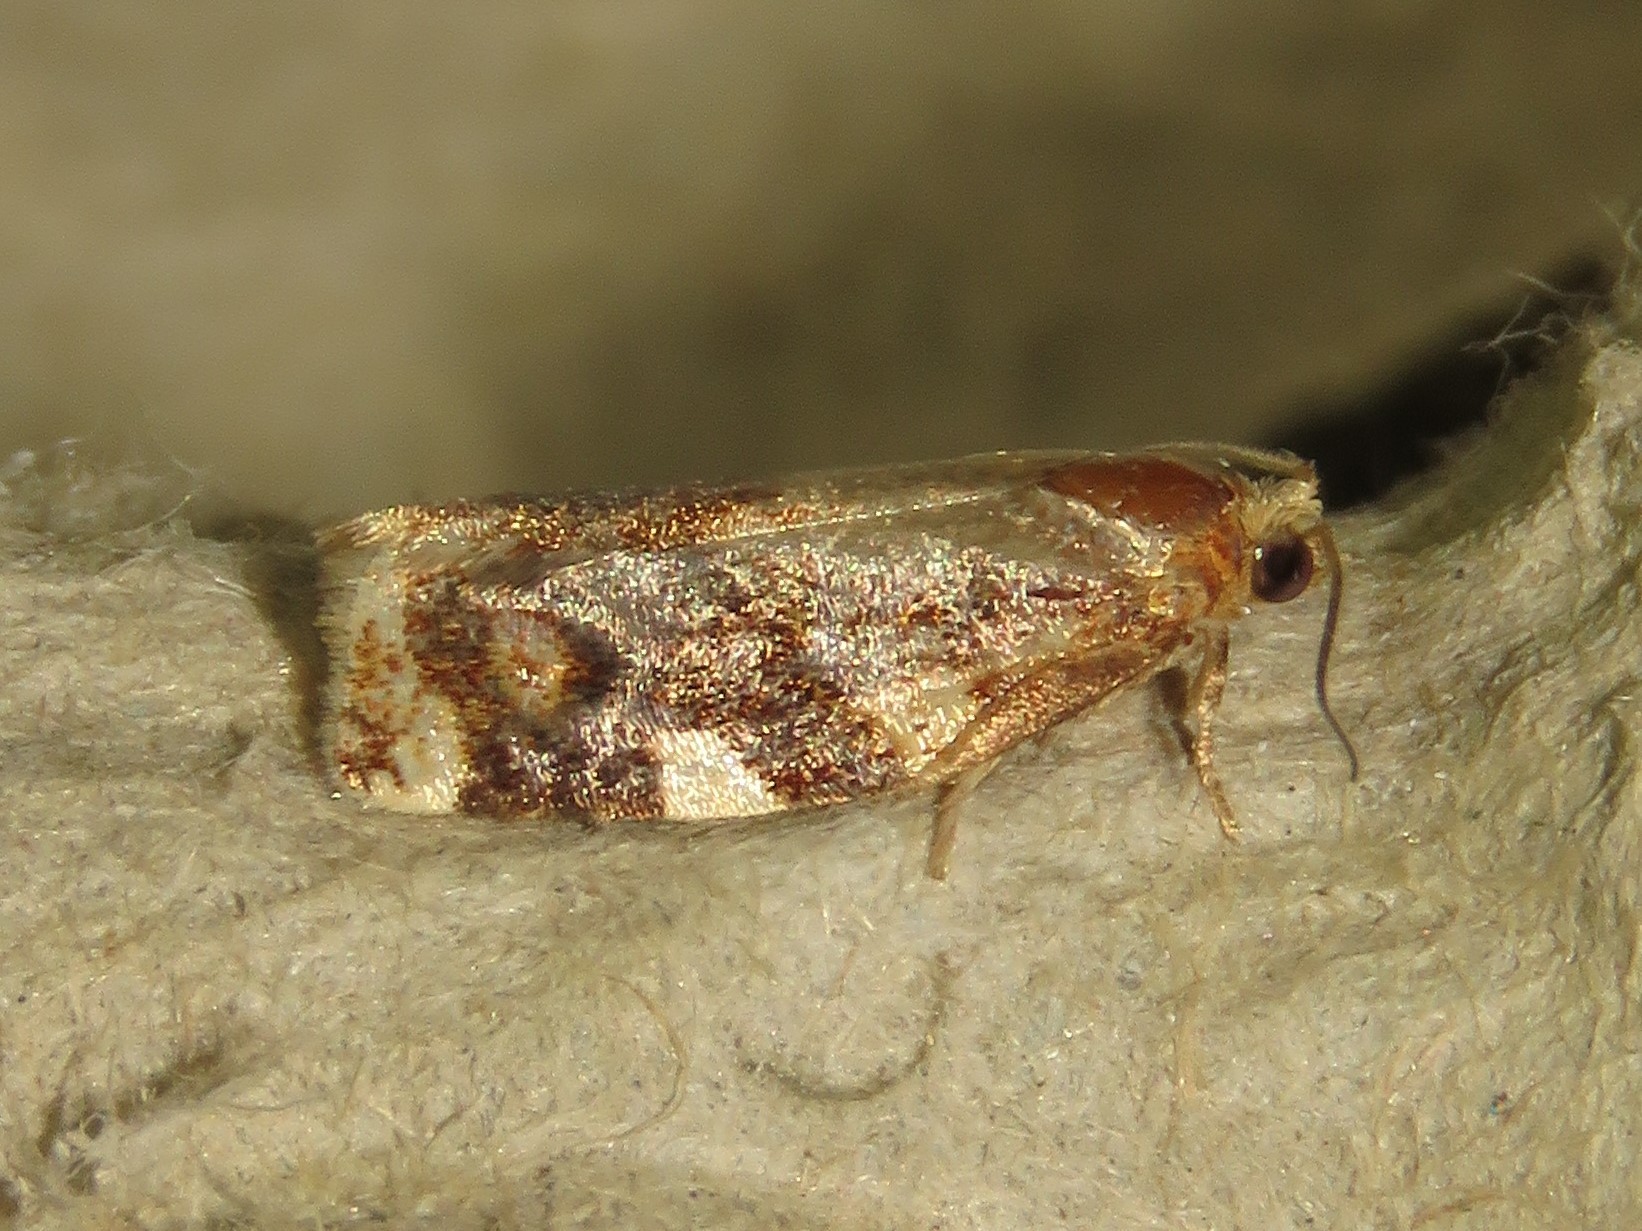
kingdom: Animalia
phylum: Arthropoda
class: Insecta
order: Lepidoptera
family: Tortricidae
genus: Archips
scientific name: Archips argyrospila
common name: Fruit-tree leafroller moth
